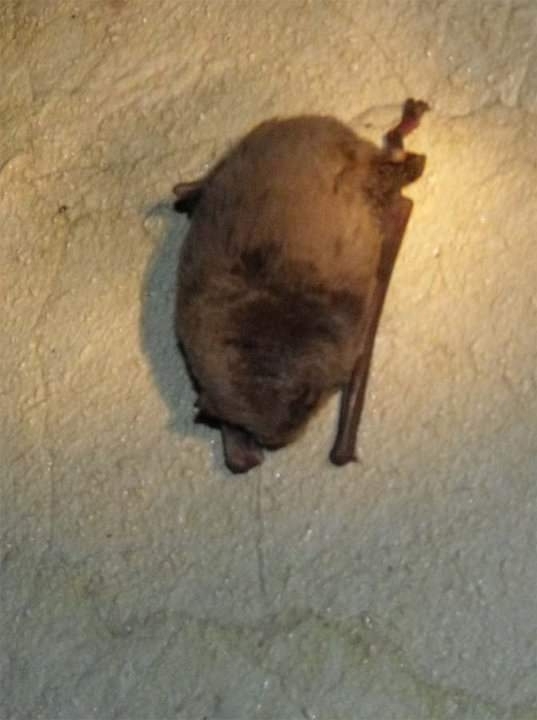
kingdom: Animalia
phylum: Chordata
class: Mammalia
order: Chiroptera
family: Miniopteridae
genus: Miniopterus
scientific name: Miniopterus schreibersii
